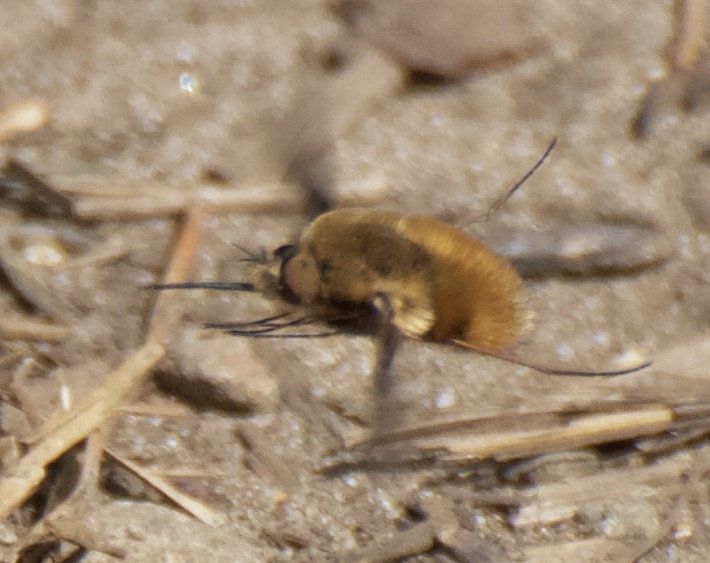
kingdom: Animalia
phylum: Arthropoda
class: Insecta
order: Diptera
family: Bombyliidae
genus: Bombylius
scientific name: Bombylius major
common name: Bee fly
